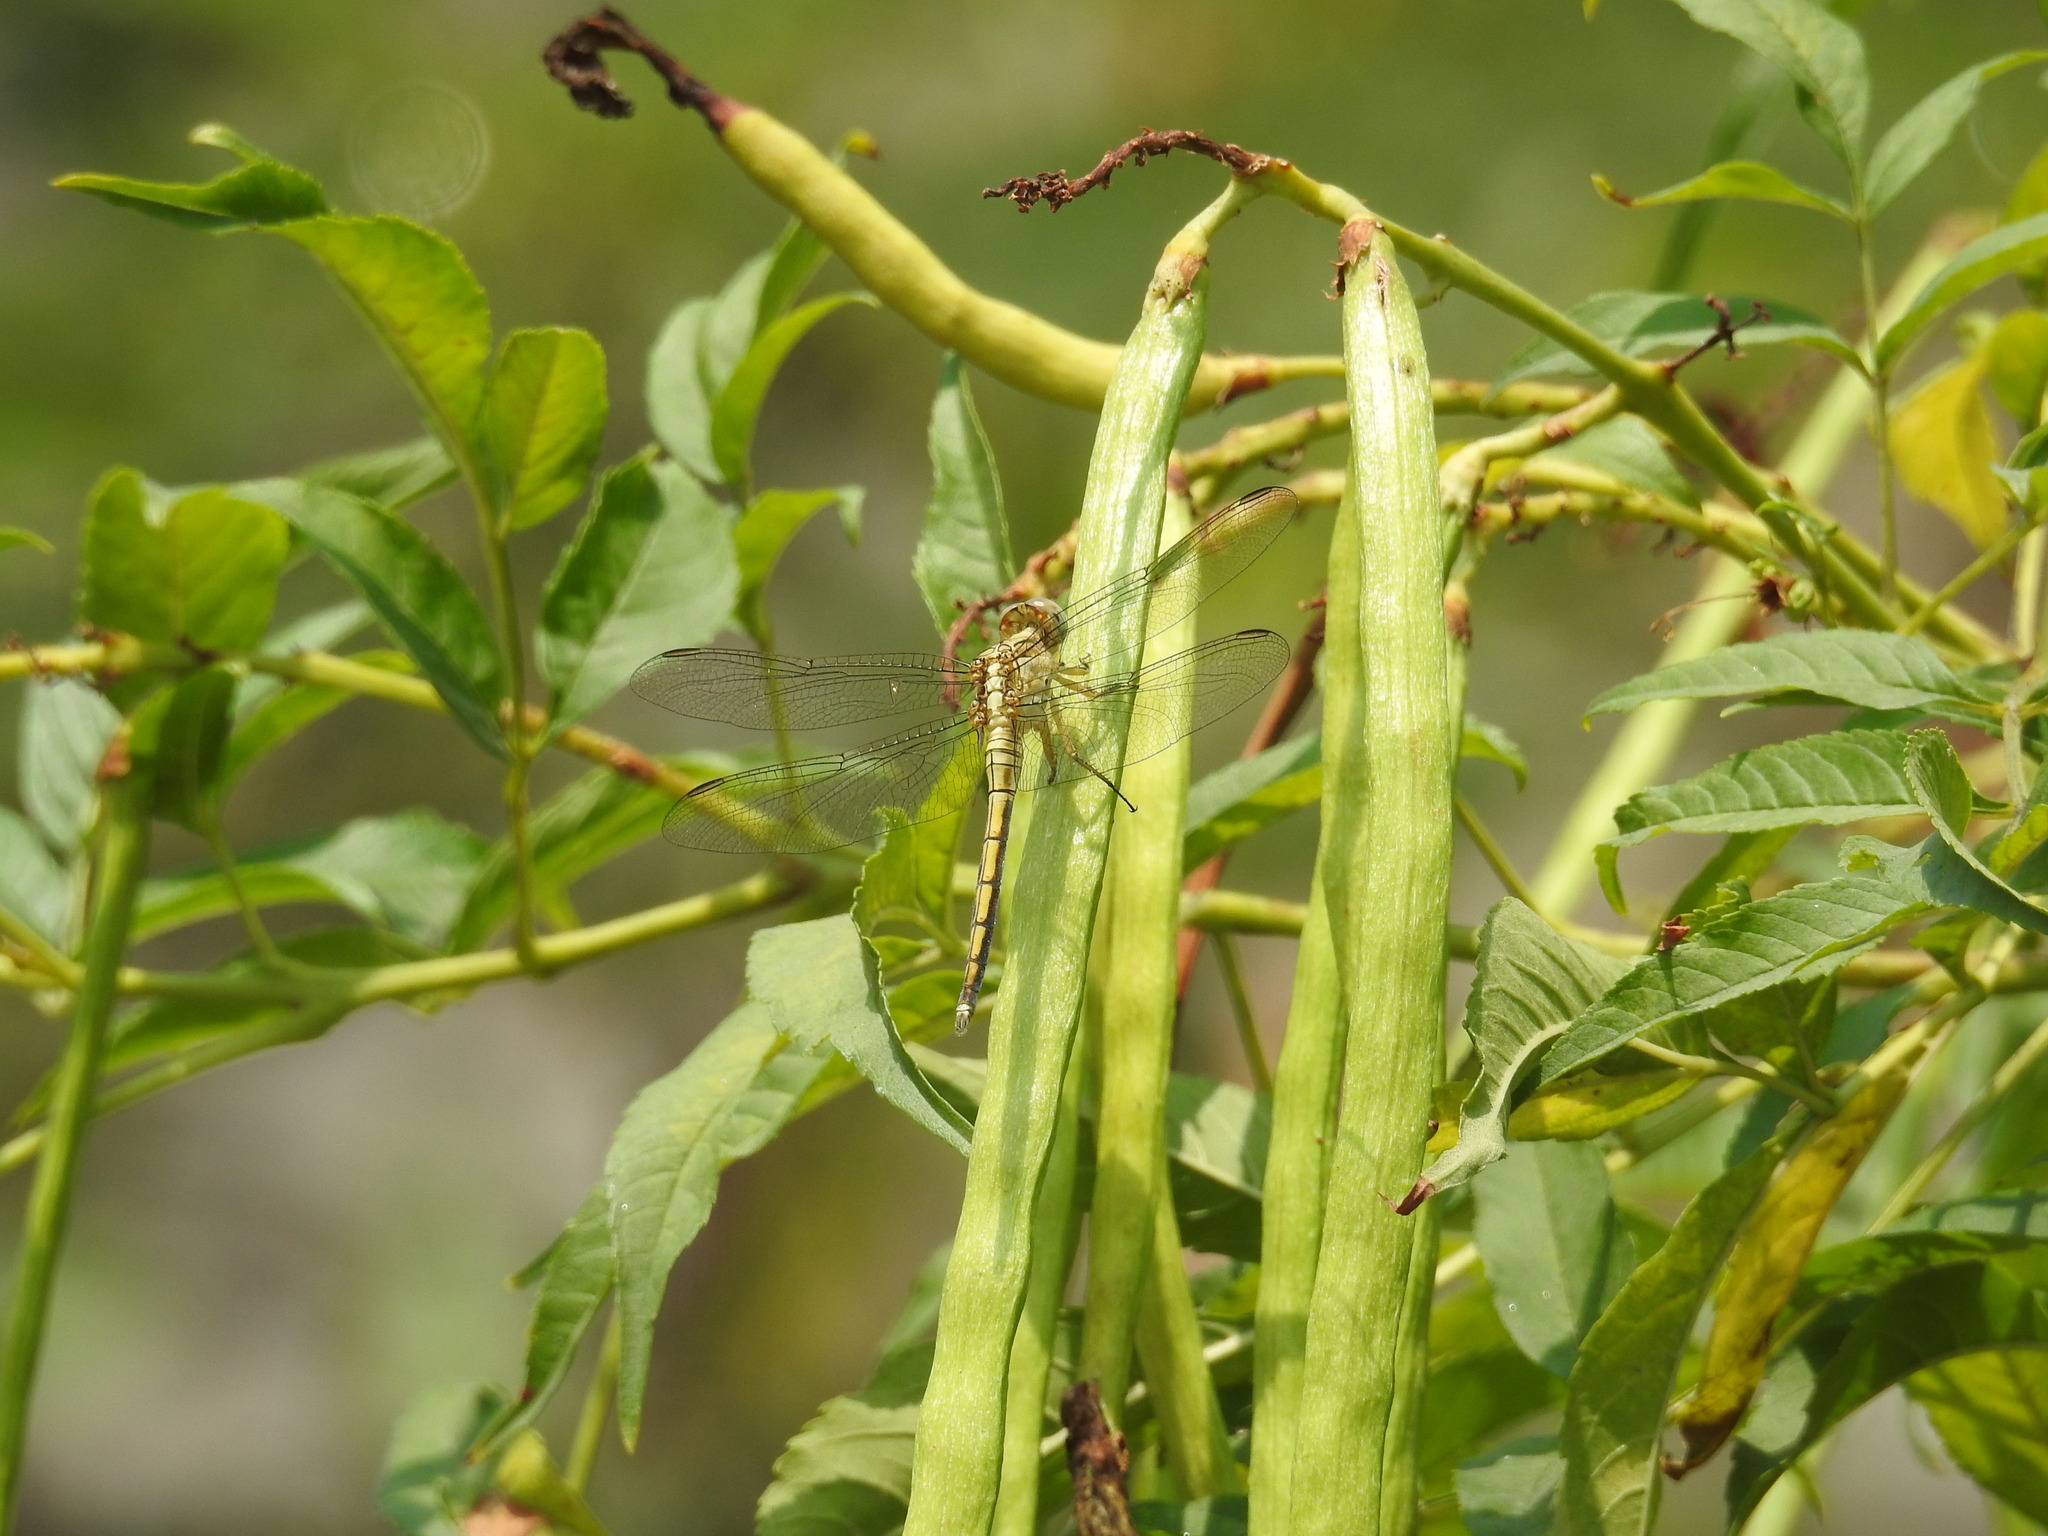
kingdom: Animalia
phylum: Arthropoda
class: Insecta
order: Odonata
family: Libellulidae
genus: Orthetrum
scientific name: Orthetrum luzonicum
